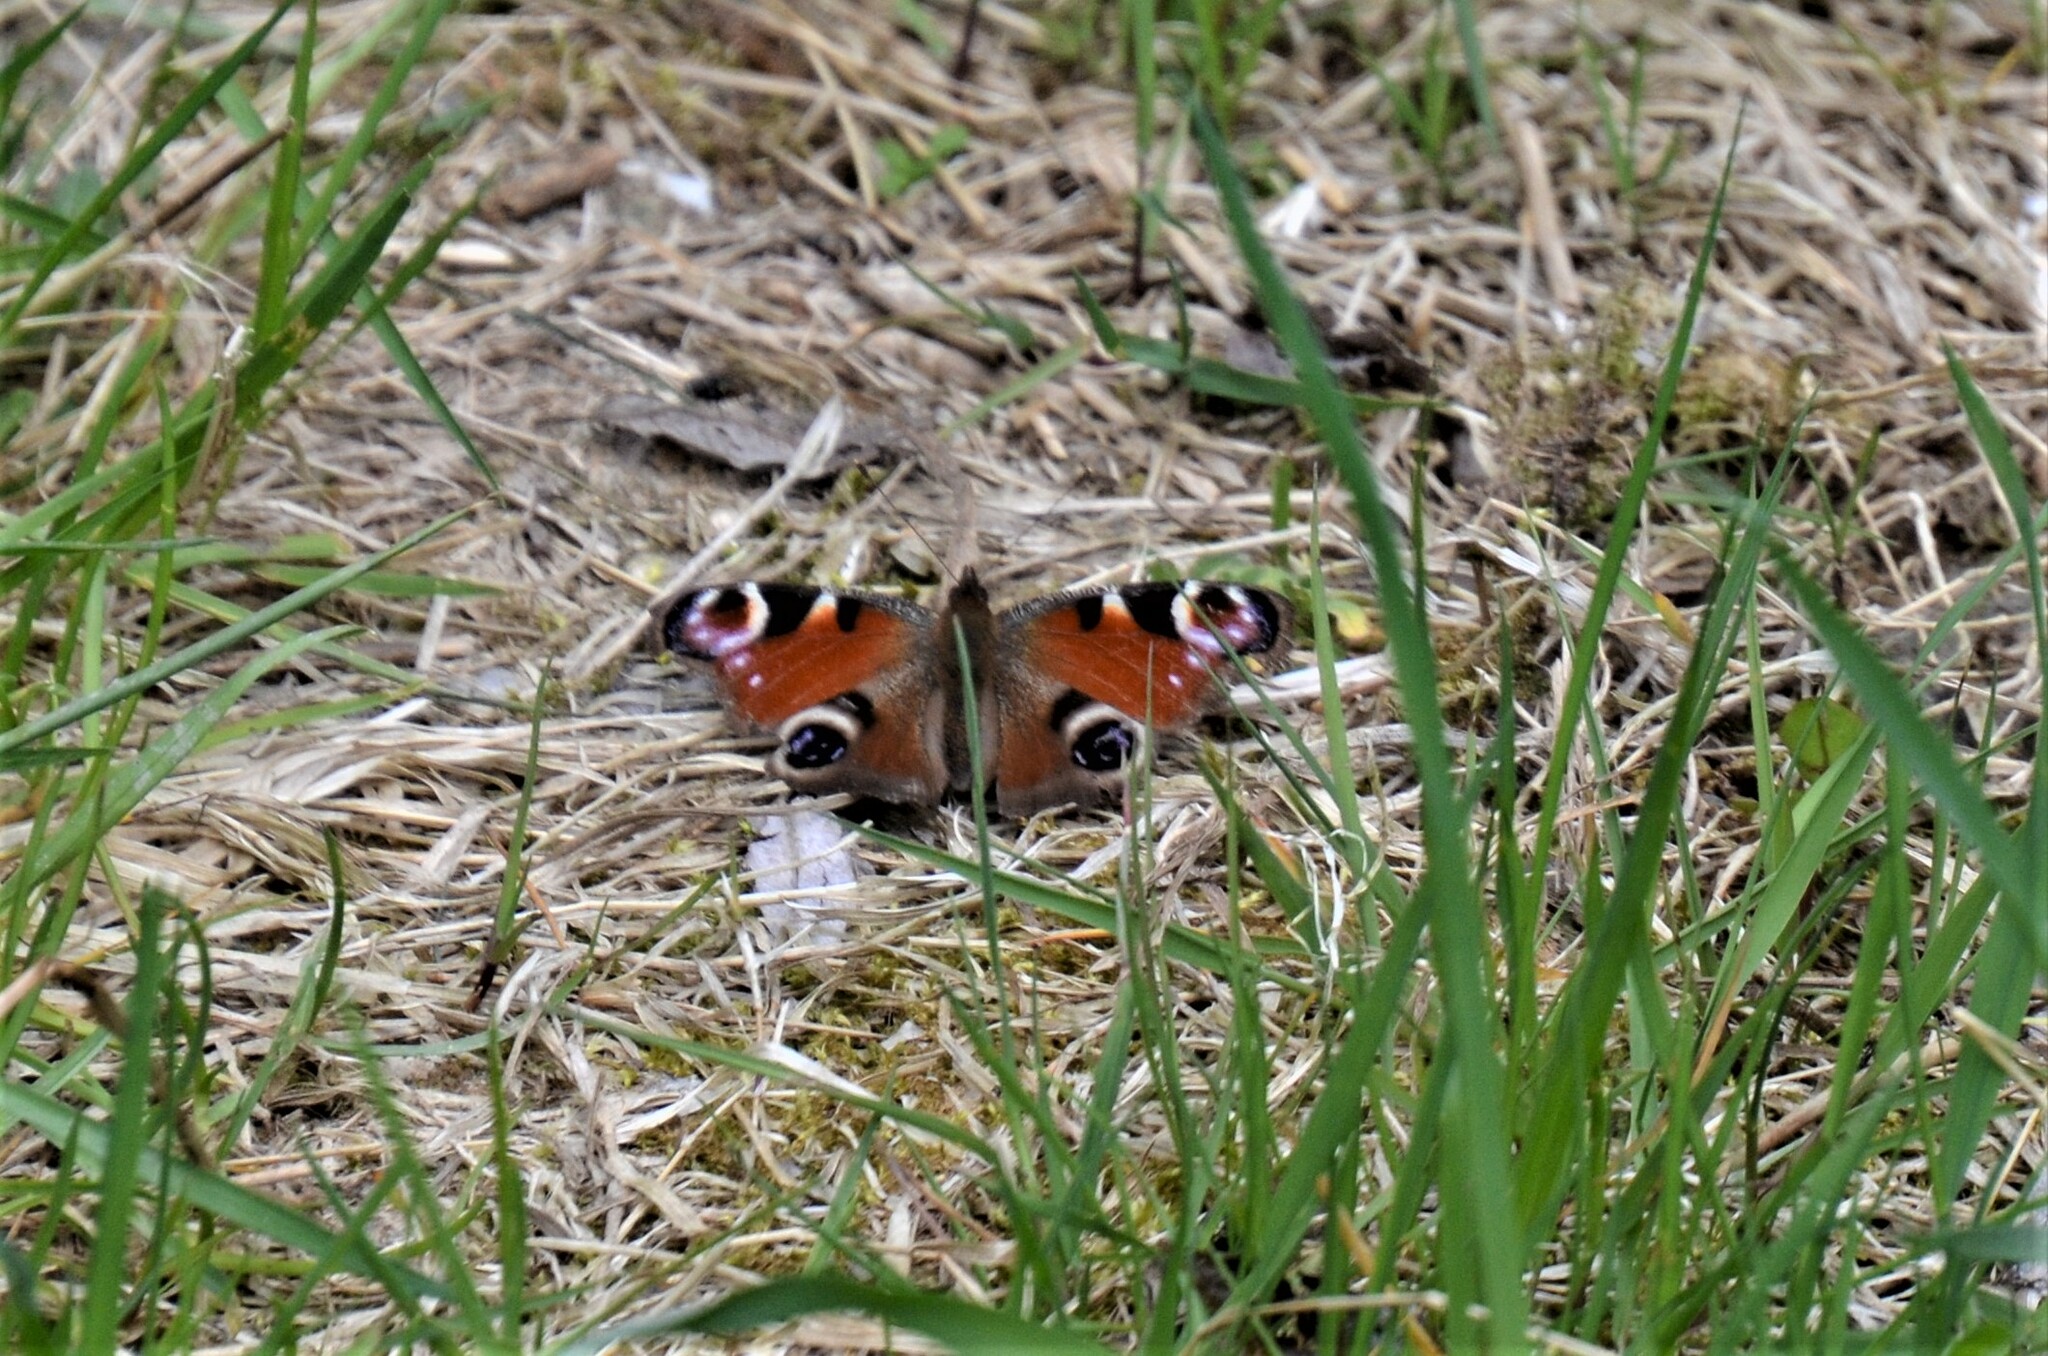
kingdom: Animalia
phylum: Arthropoda
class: Insecta
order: Lepidoptera
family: Nymphalidae
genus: Aglais
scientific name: Aglais io
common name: Peacock
